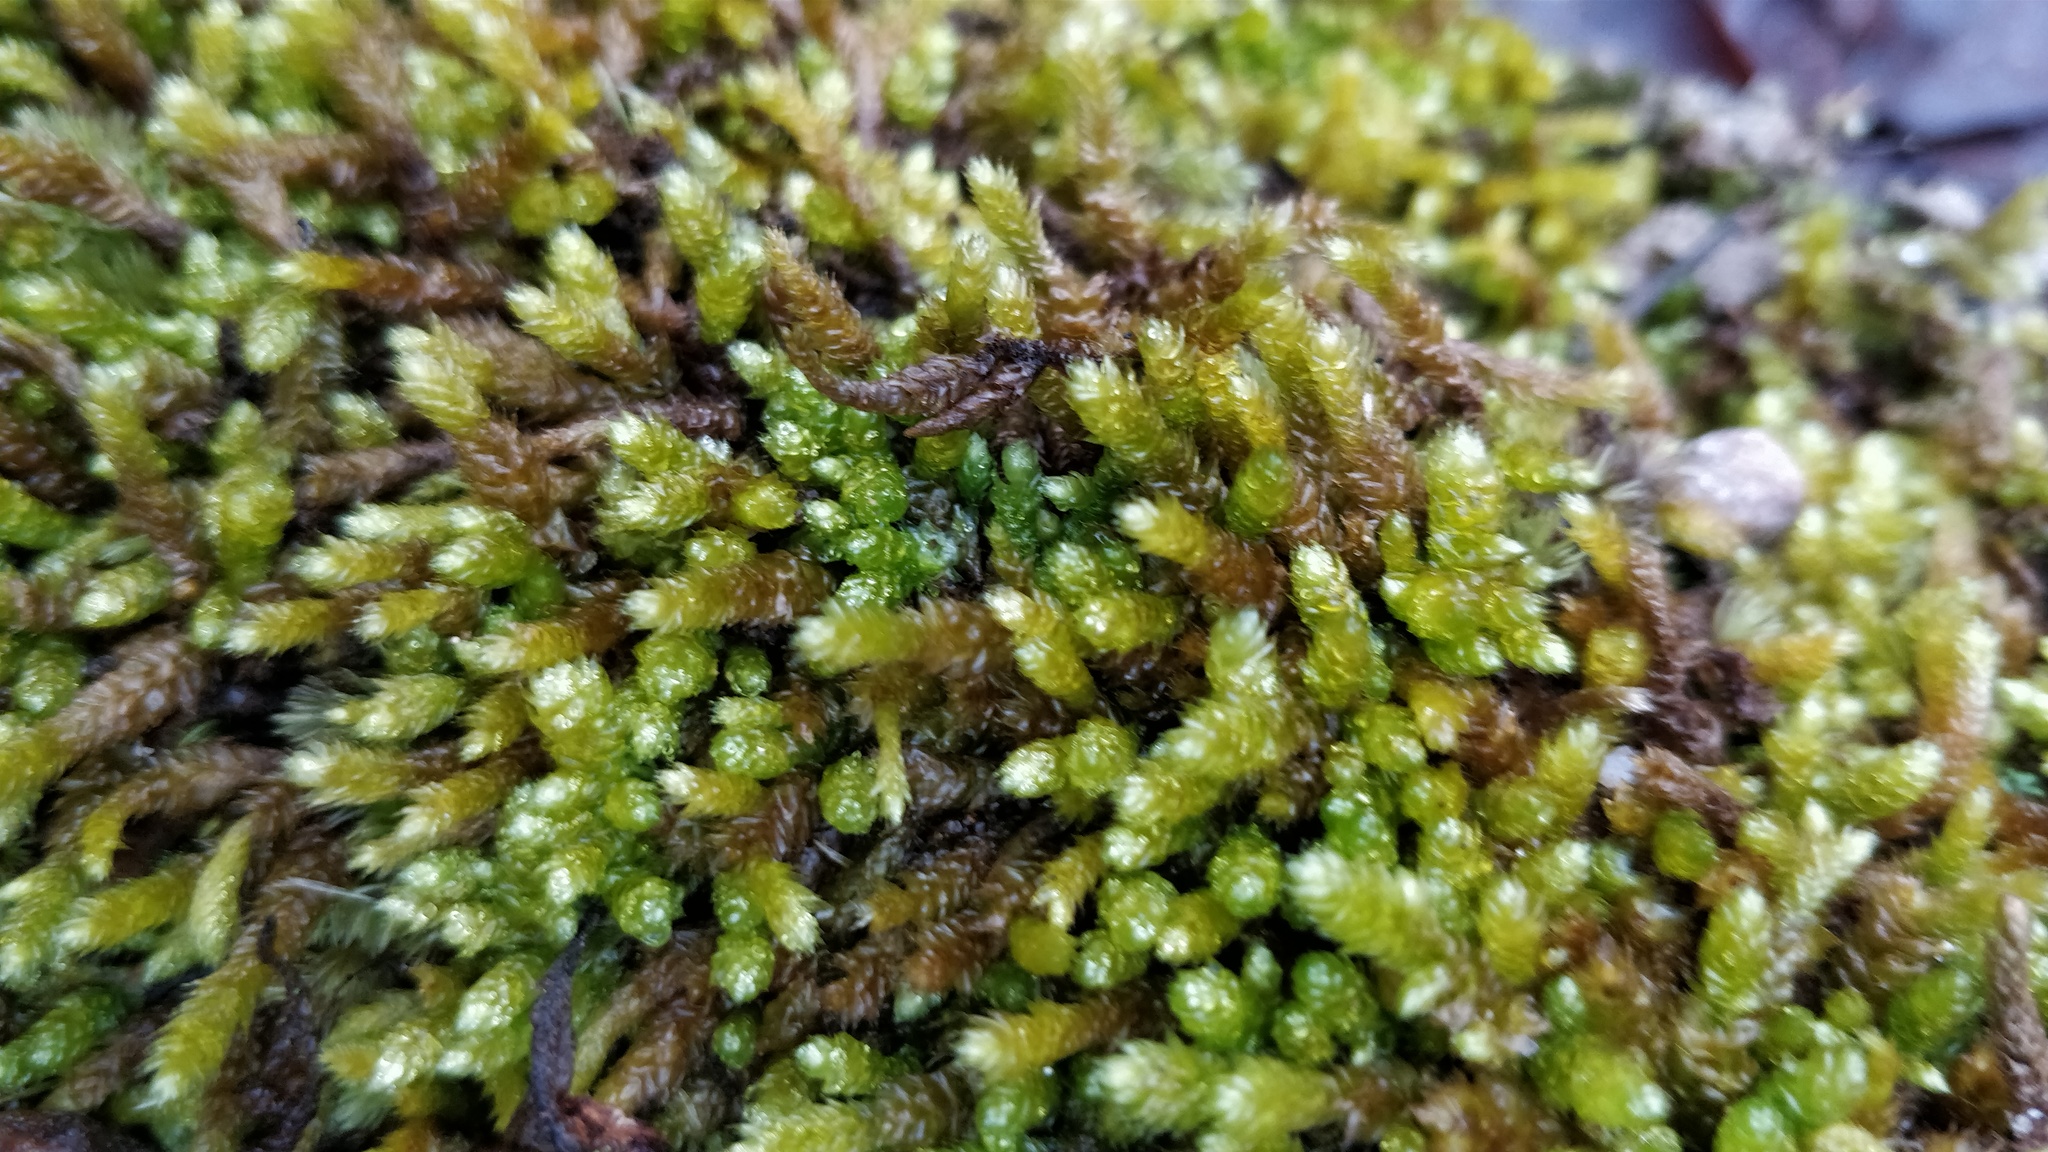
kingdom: Plantae
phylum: Bryophyta
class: Bryopsida
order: Hypnales
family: Brachytheciaceae
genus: Bryoandersonia
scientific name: Bryoandersonia illecebra
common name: Spoon-leaved moss
